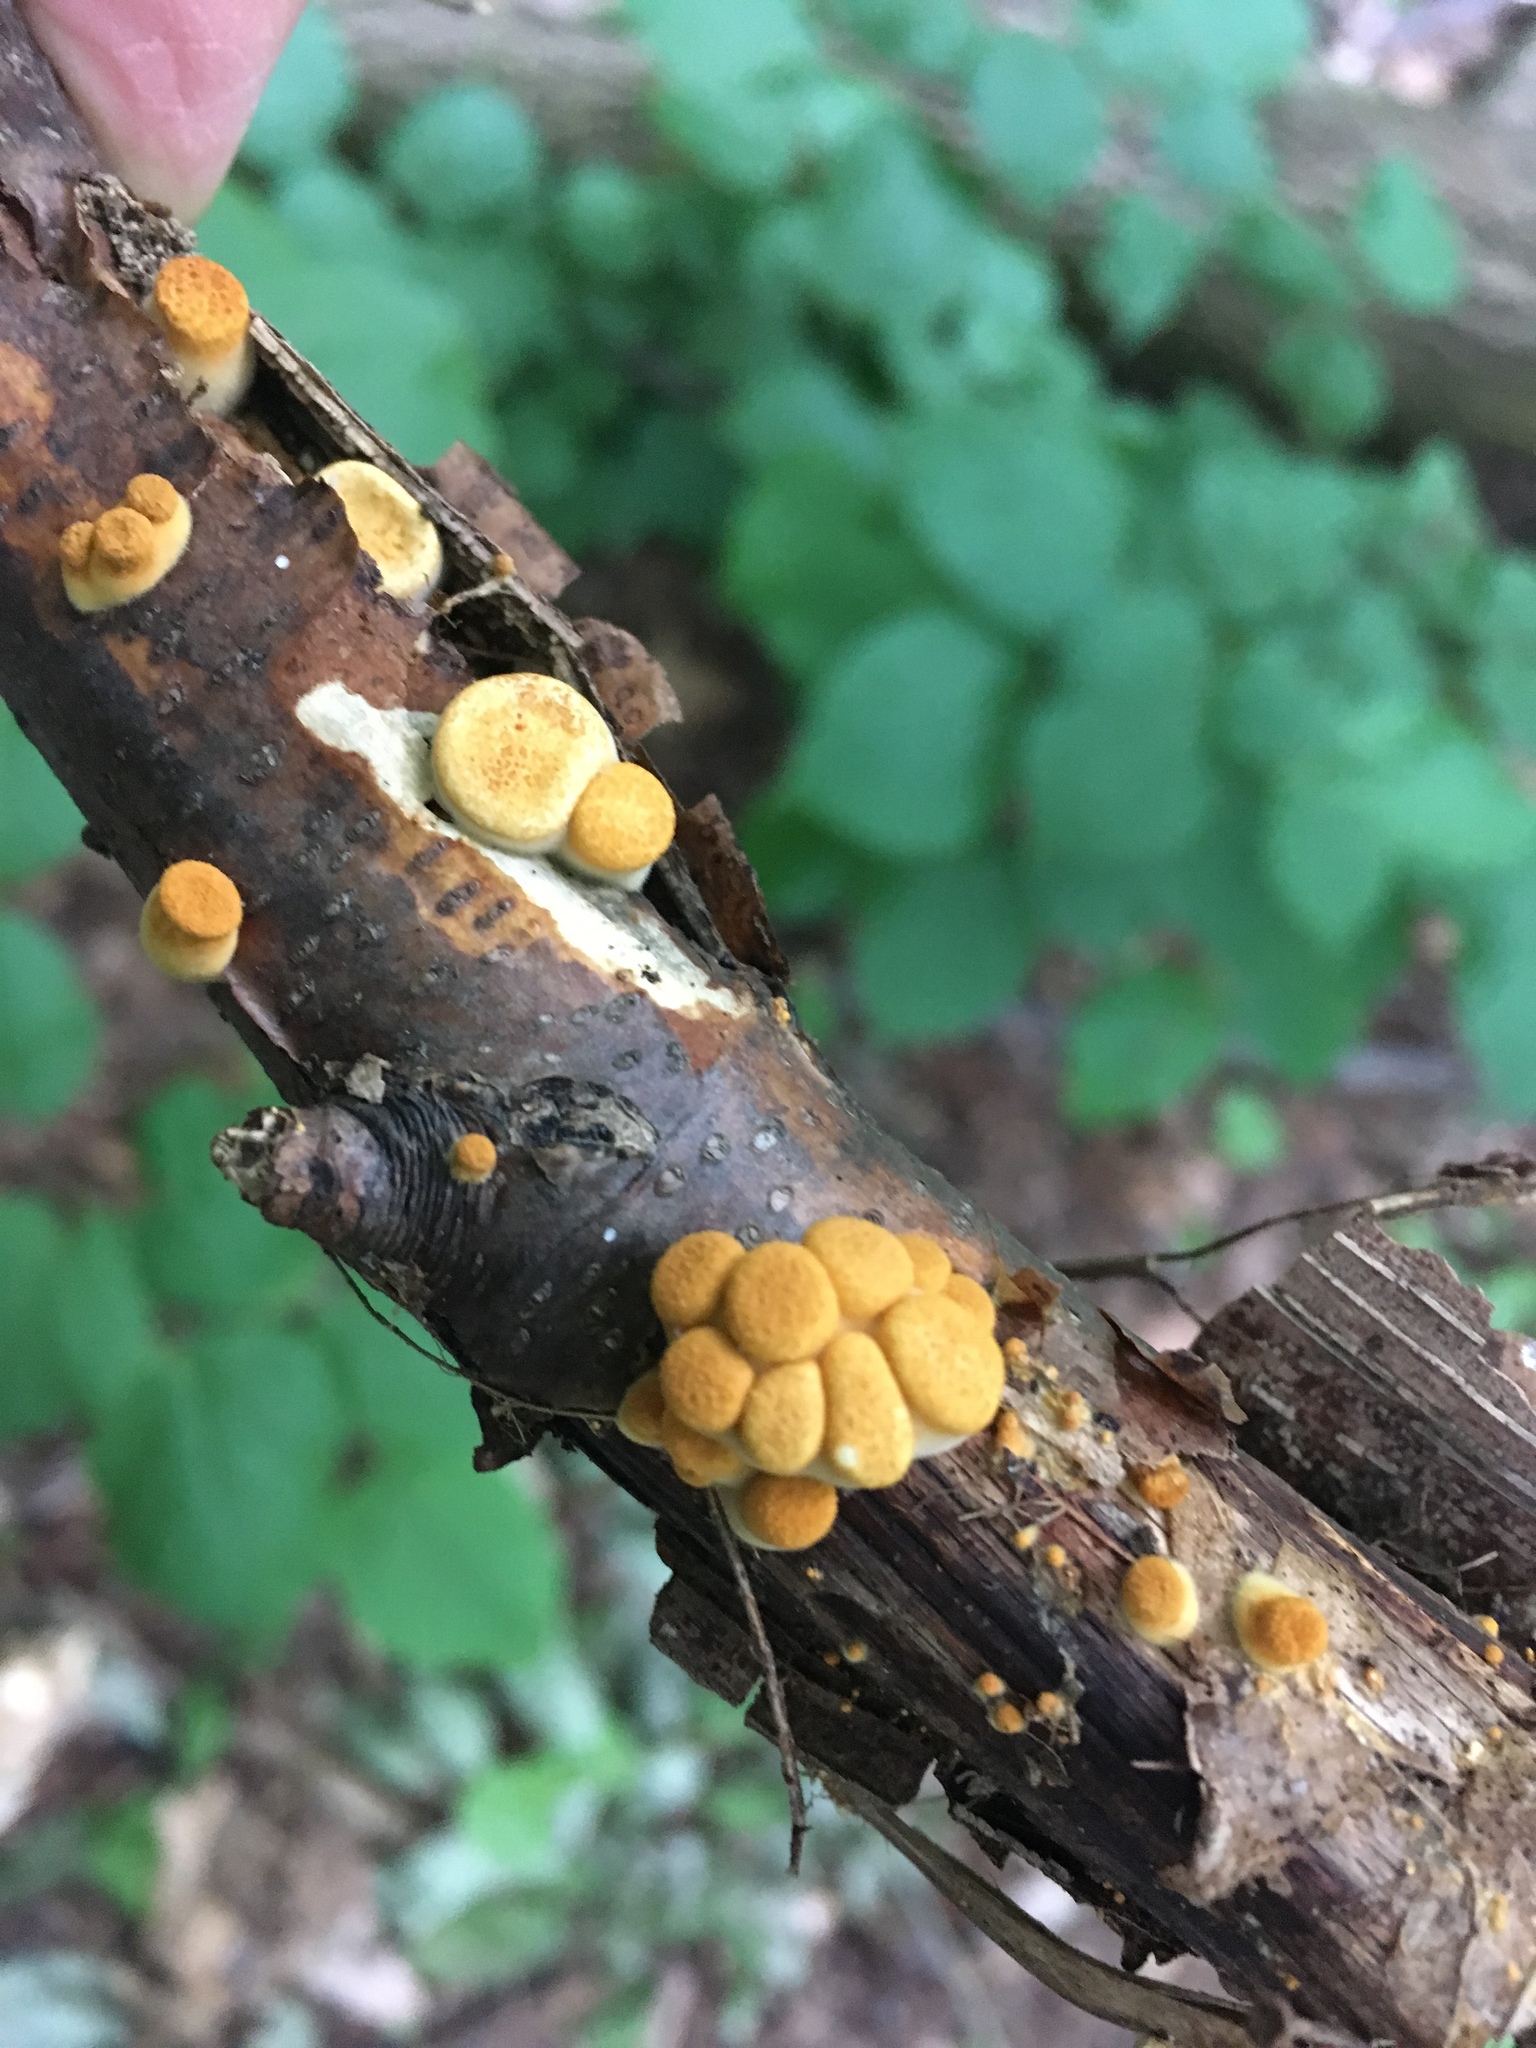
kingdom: Fungi
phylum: Basidiomycota
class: Agaricomycetes
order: Agaricales
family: Nidulariaceae
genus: Crucibulum
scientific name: Crucibulum laeve
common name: Common bird's nest
